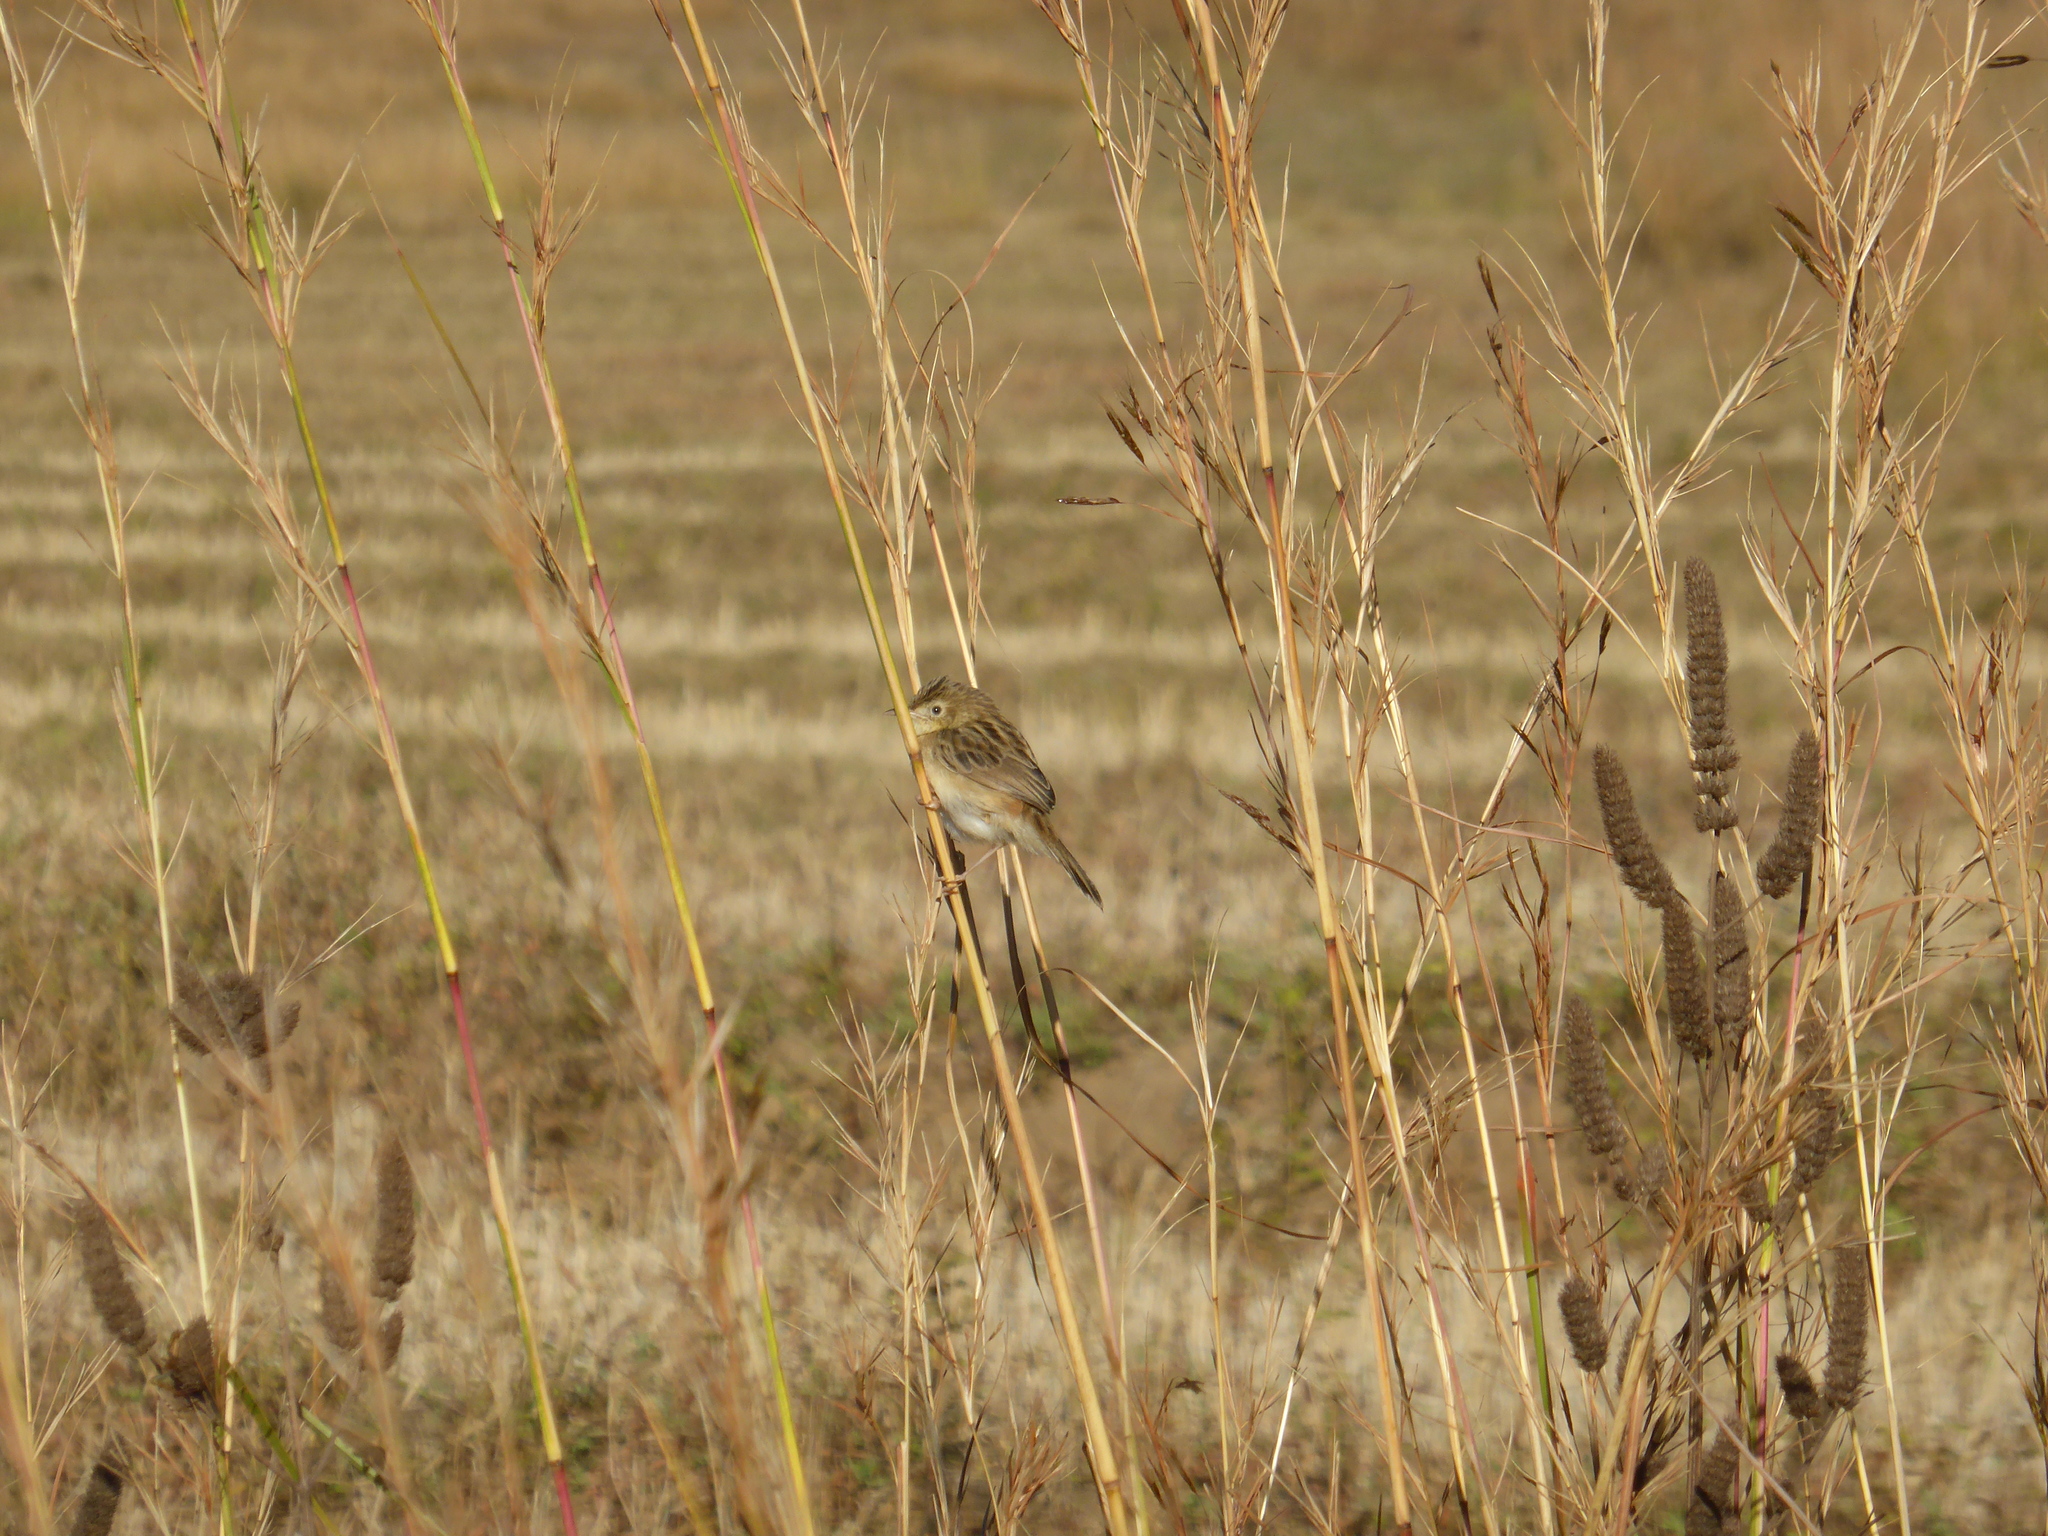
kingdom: Animalia
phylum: Chordata
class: Aves
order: Passeriformes
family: Cisticolidae
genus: Cisticola
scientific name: Cisticola cherina
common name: Madagascar cisticola
